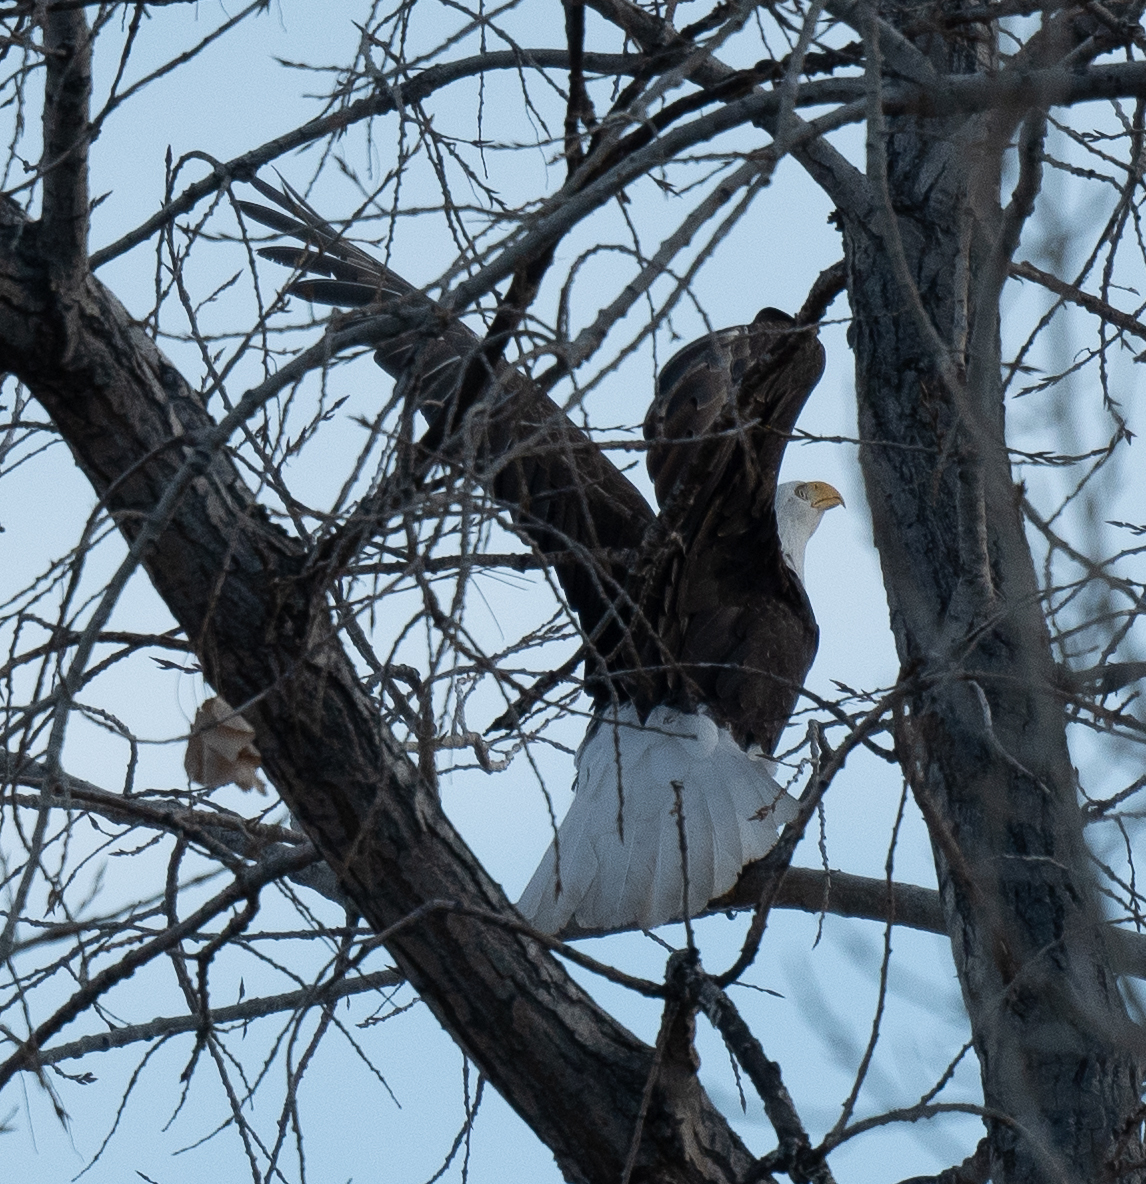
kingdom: Animalia
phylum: Chordata
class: Aves
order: Accipitriformes
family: Accipitridae
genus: Haliaeetus
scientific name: Haliaeetus leucocephalus
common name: Bald eagle
